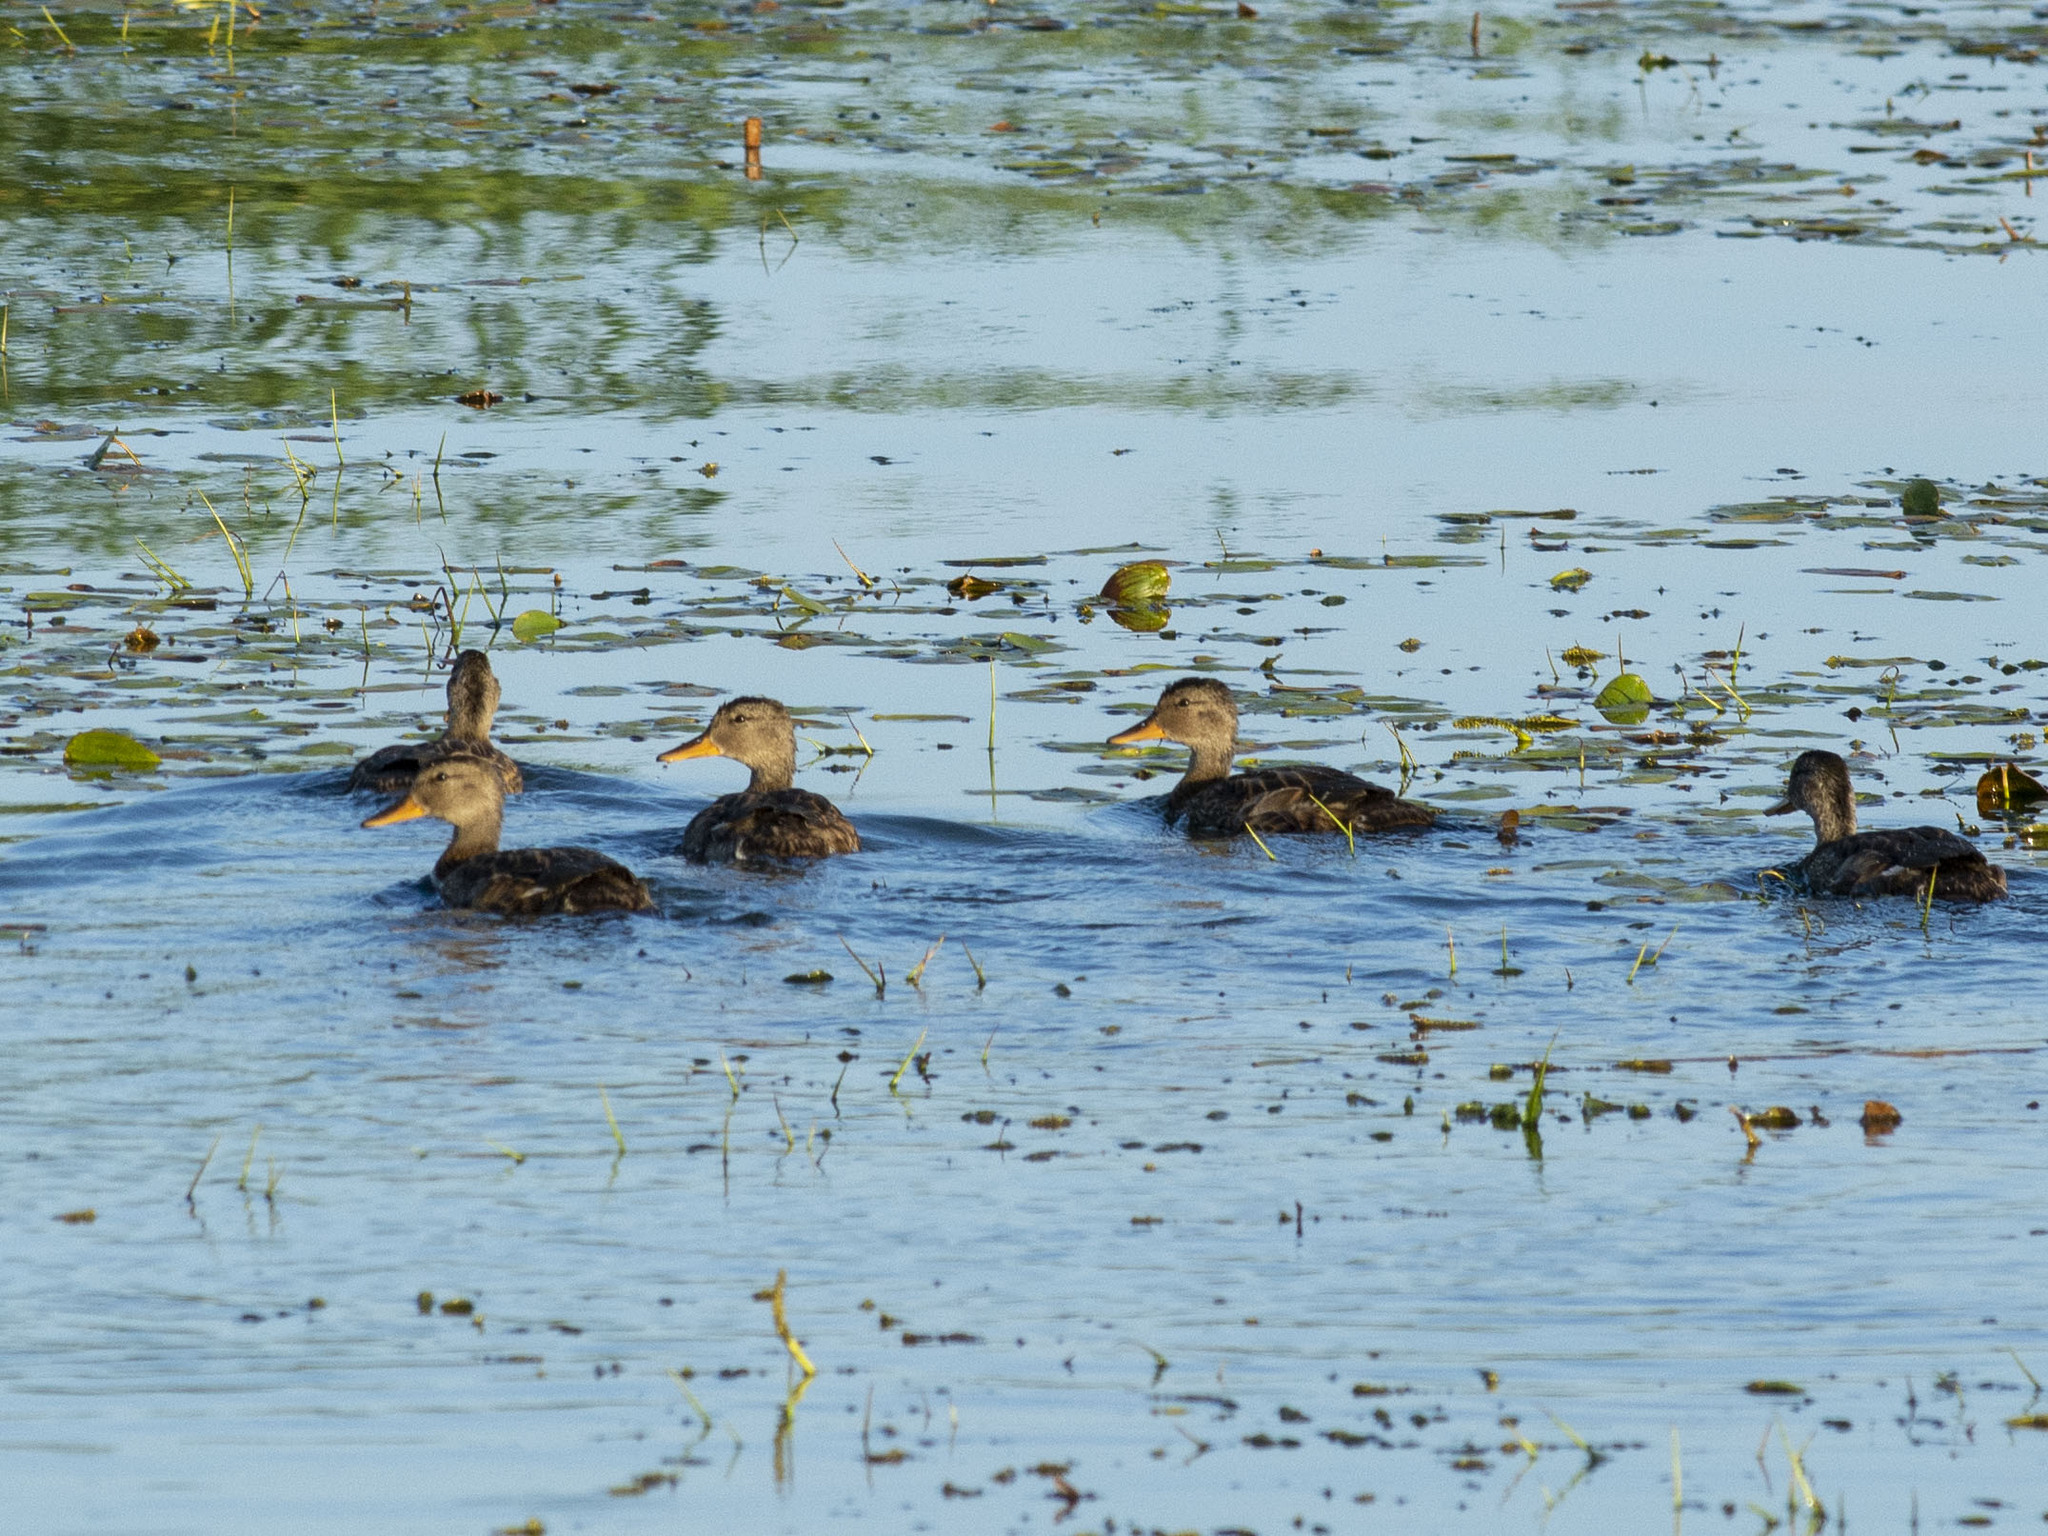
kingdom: Animalia
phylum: Chordata
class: Aves
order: Anseriformes
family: Anatidae
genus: Mareca
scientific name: Mareca strepera
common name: Gadwall
